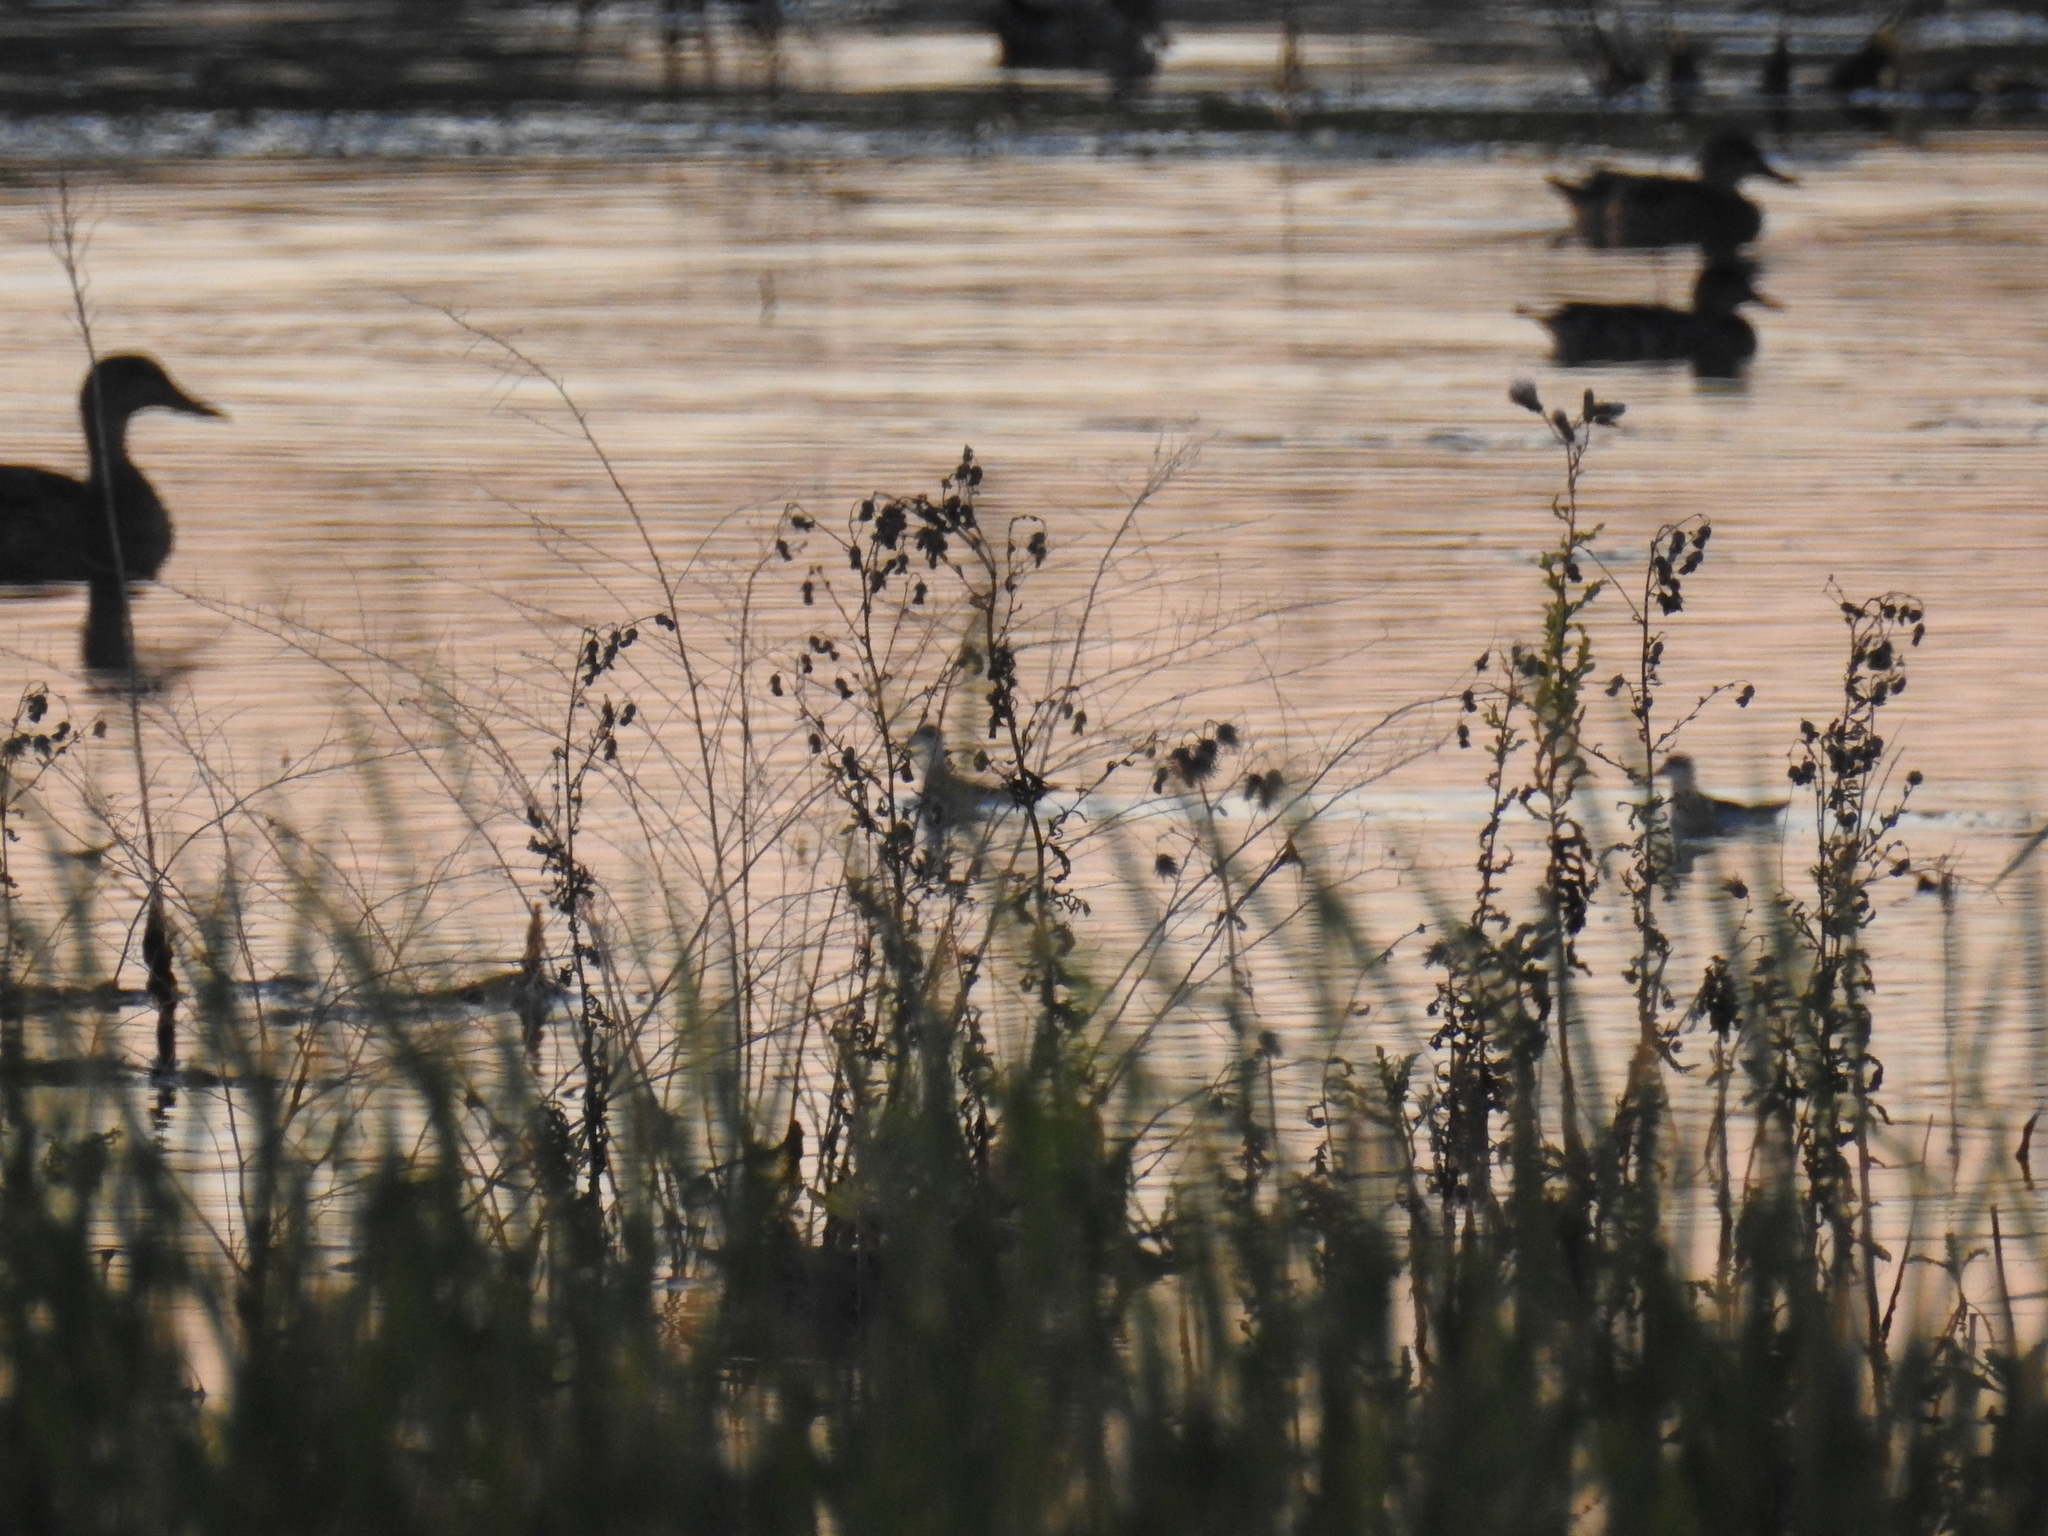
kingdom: Animalia
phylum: Chordata
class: Aves
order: Anseriformes
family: Anatidae
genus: Anas
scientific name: Anas platyrhynchos
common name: Mallard
